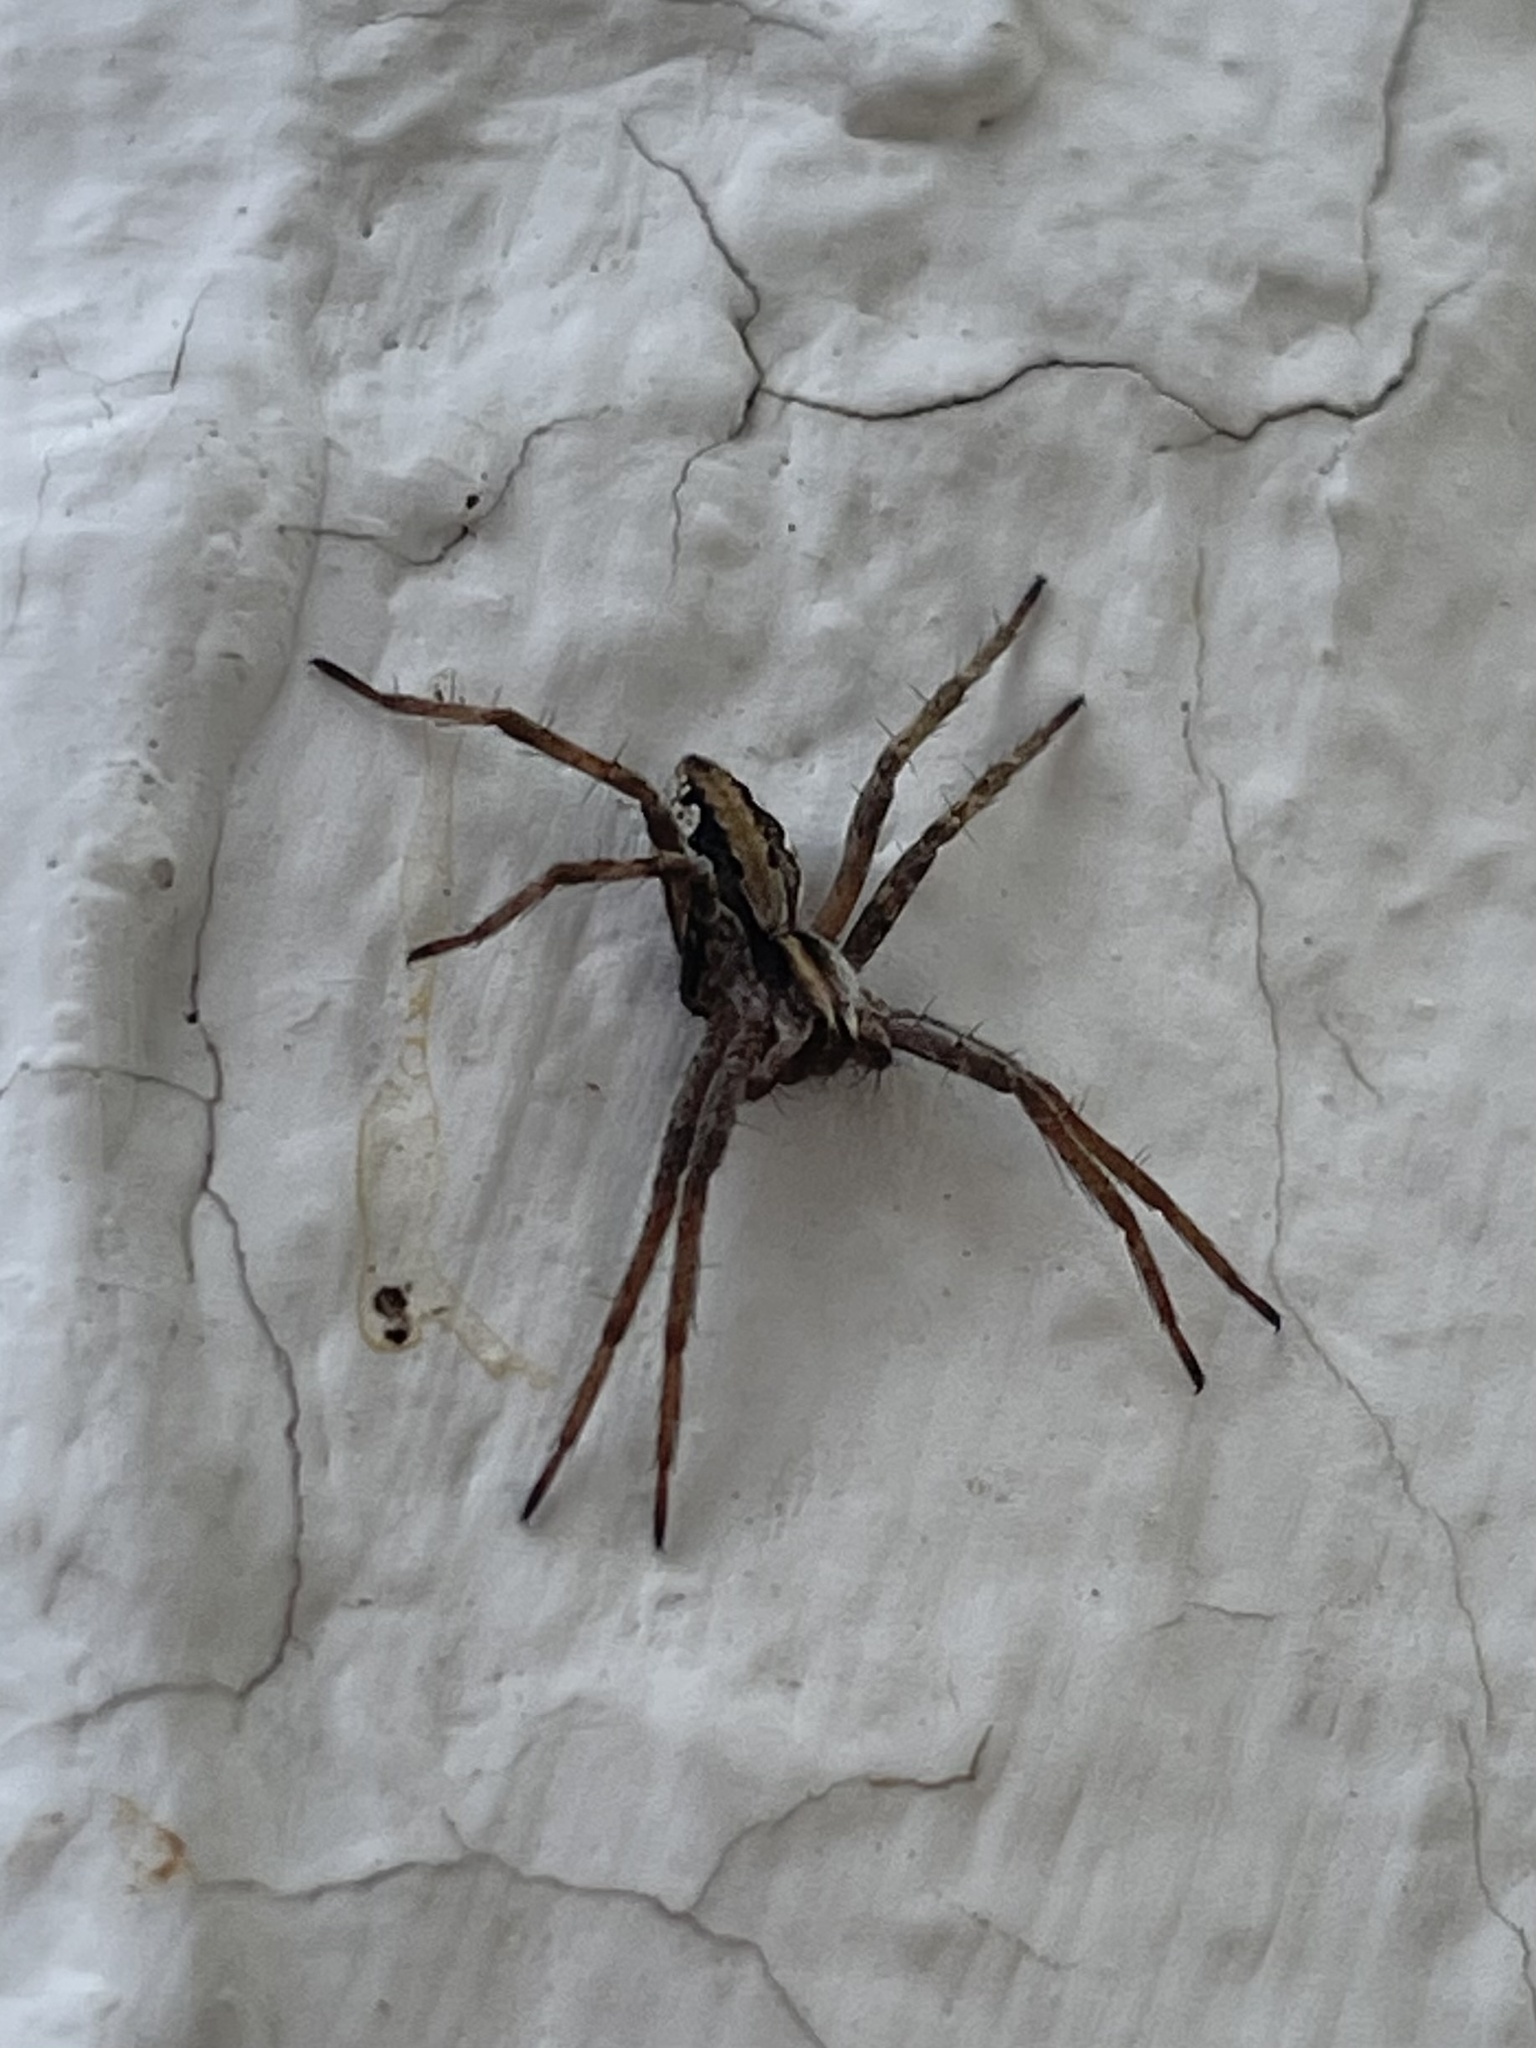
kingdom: Animalia
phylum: Arthropoda
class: Arachnida
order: Araneae
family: Pisauridae
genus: Pisaura
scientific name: Pisaura mirabilis
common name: Tent spider
